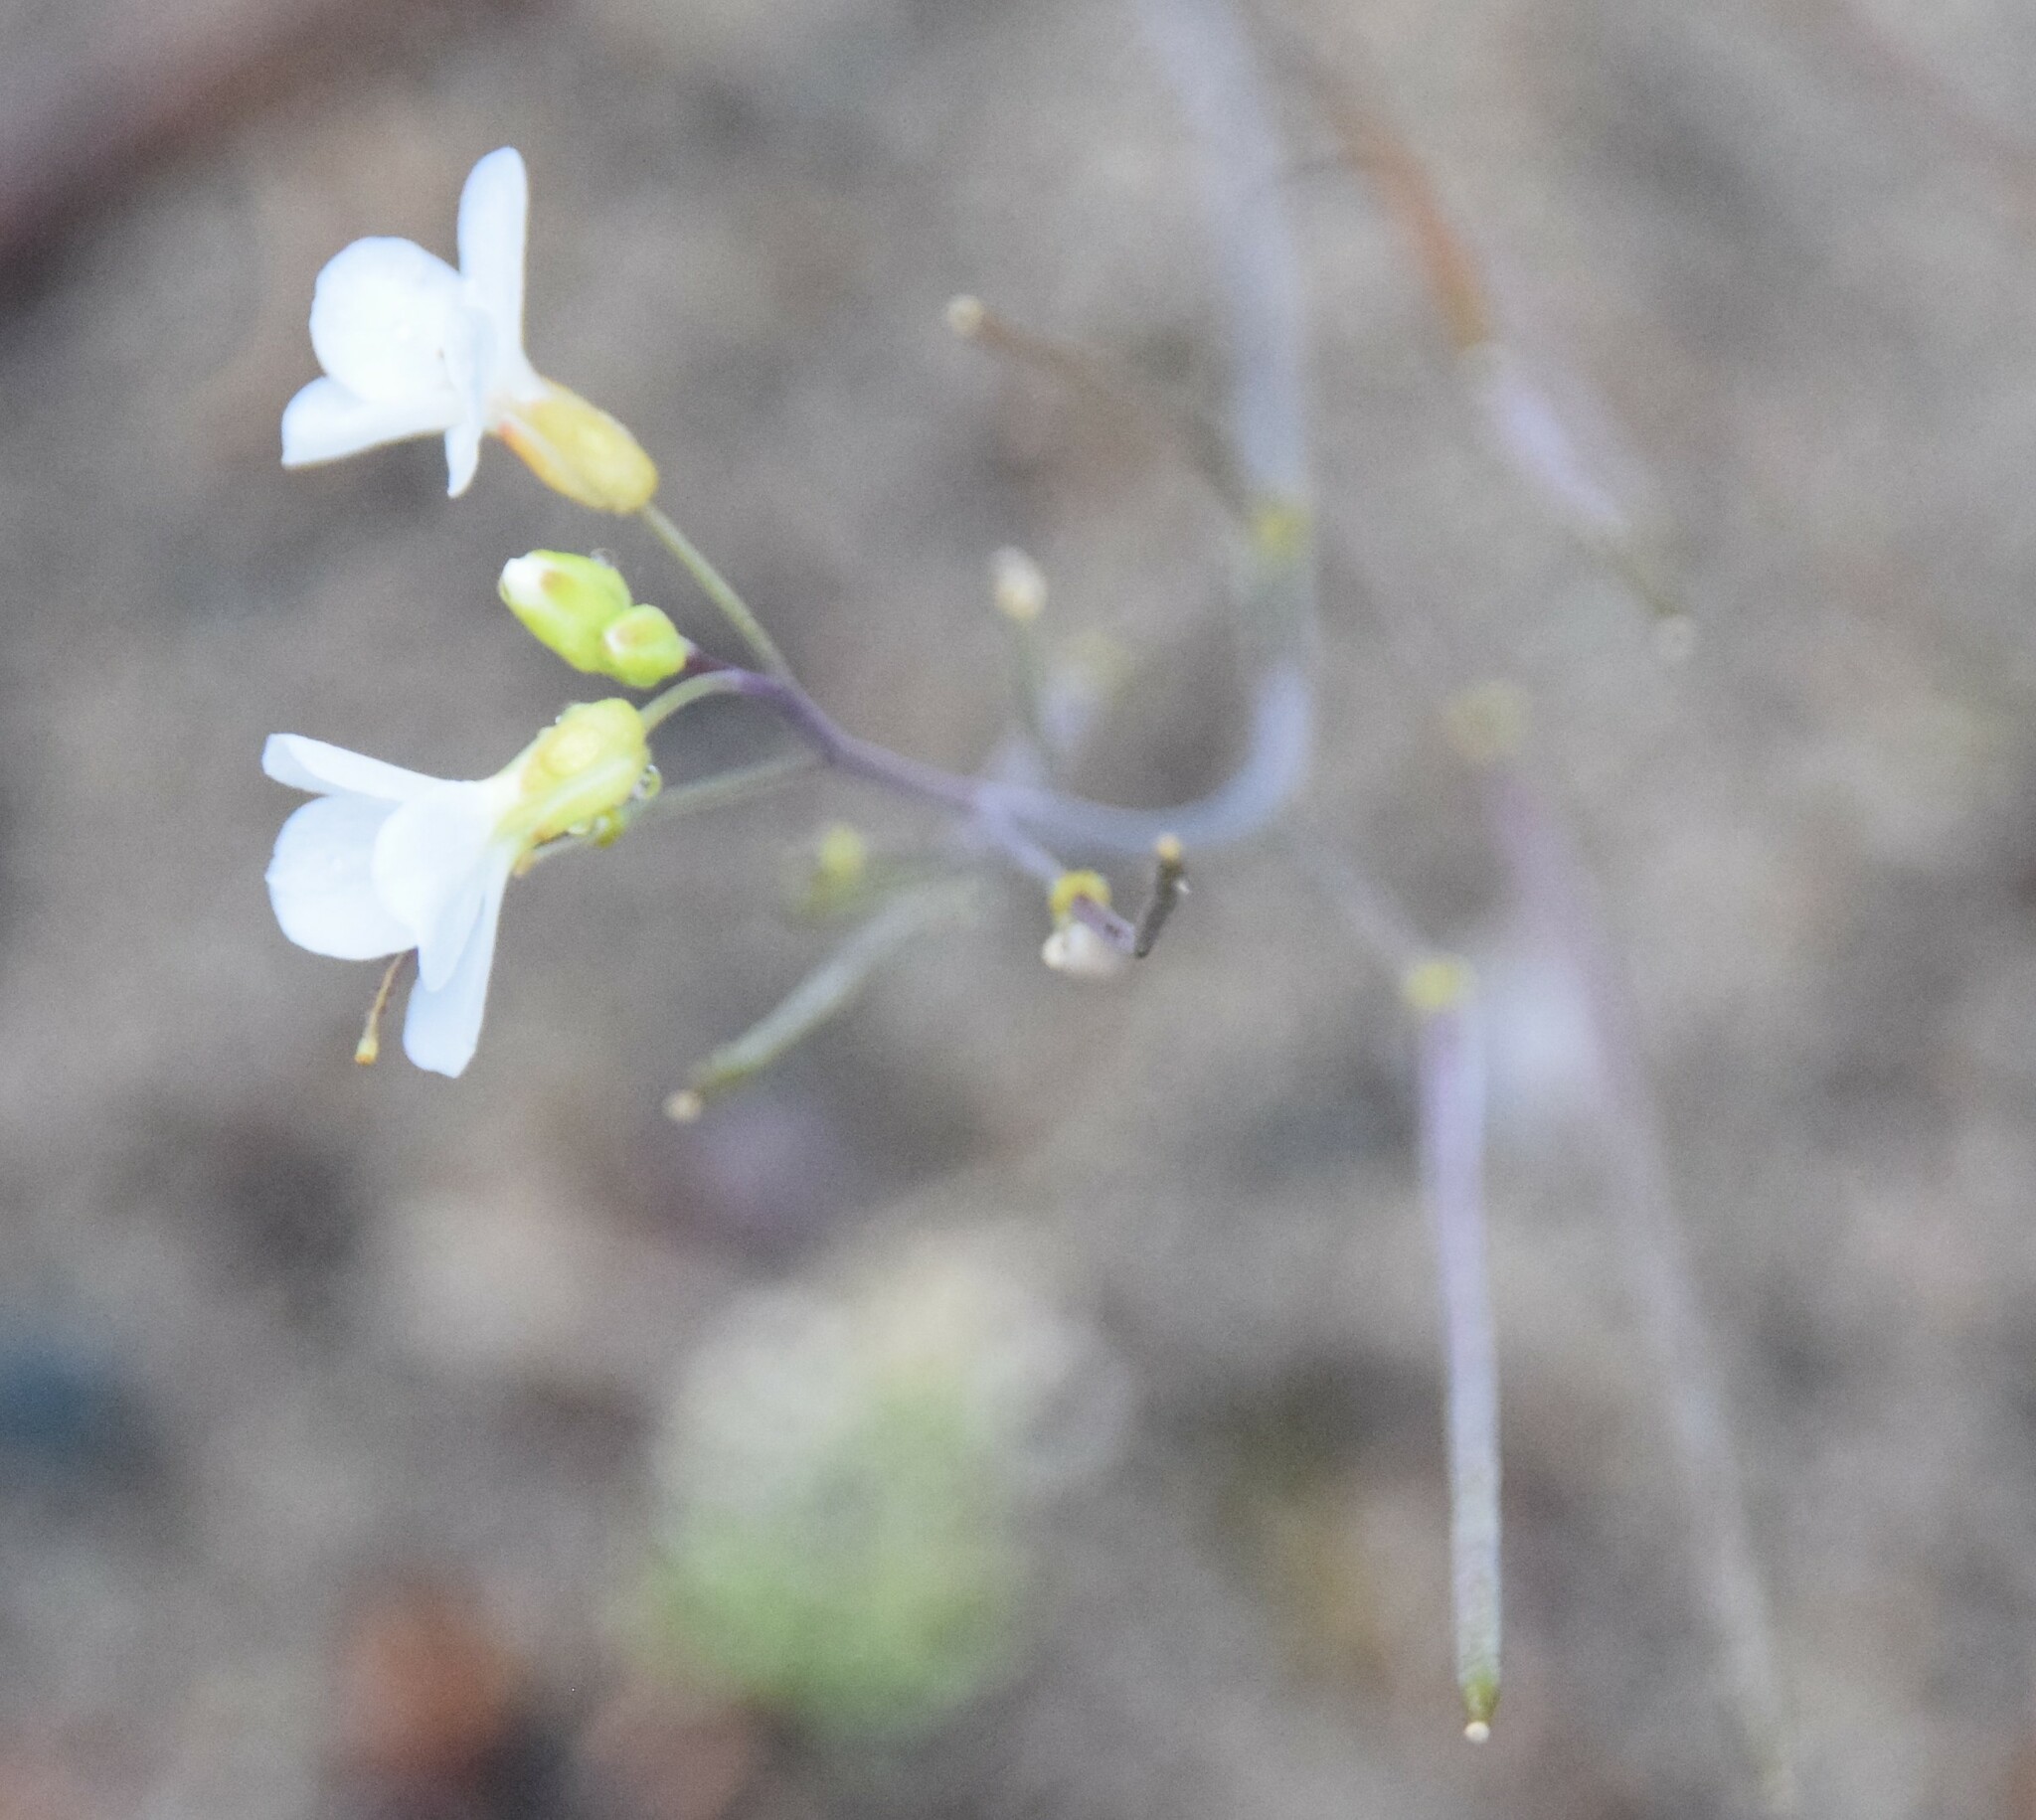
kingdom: Plantae
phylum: Tracheophyta
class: Magnoliopsida
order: Brassicales
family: Brassicaceae
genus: Arabidopsis
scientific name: Arabidopsis lyrata
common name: Lyrate rockcress
